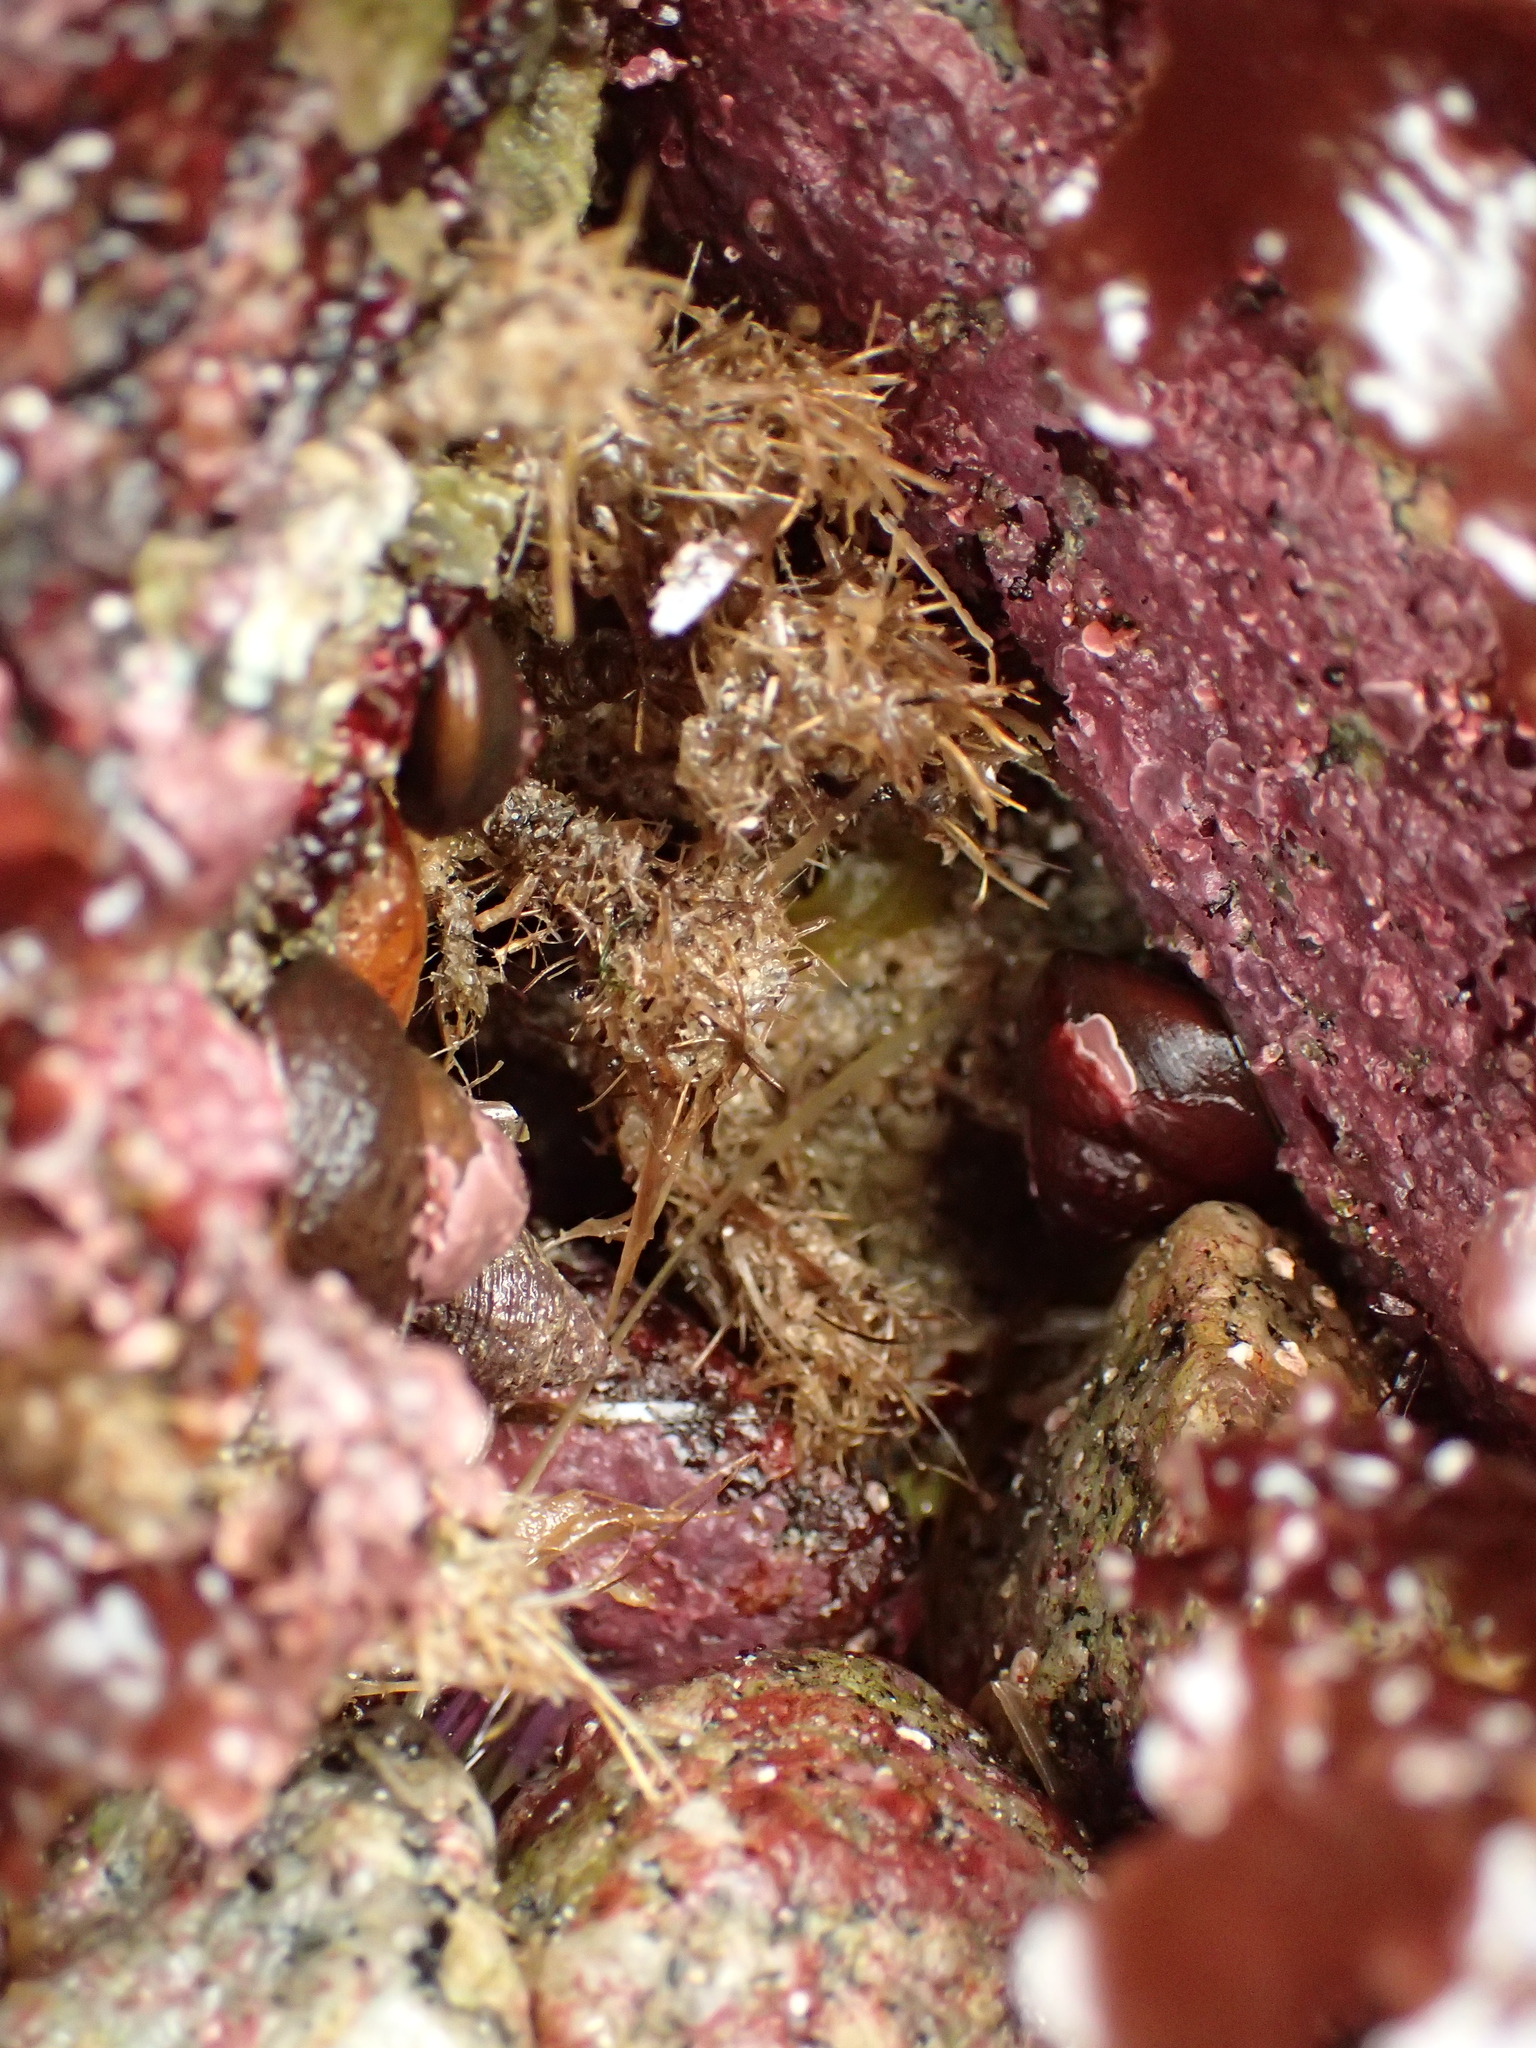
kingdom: Animalia
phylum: Annelida
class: Polychaeta
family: Terebellidae
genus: Pista
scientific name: Pista elongata
